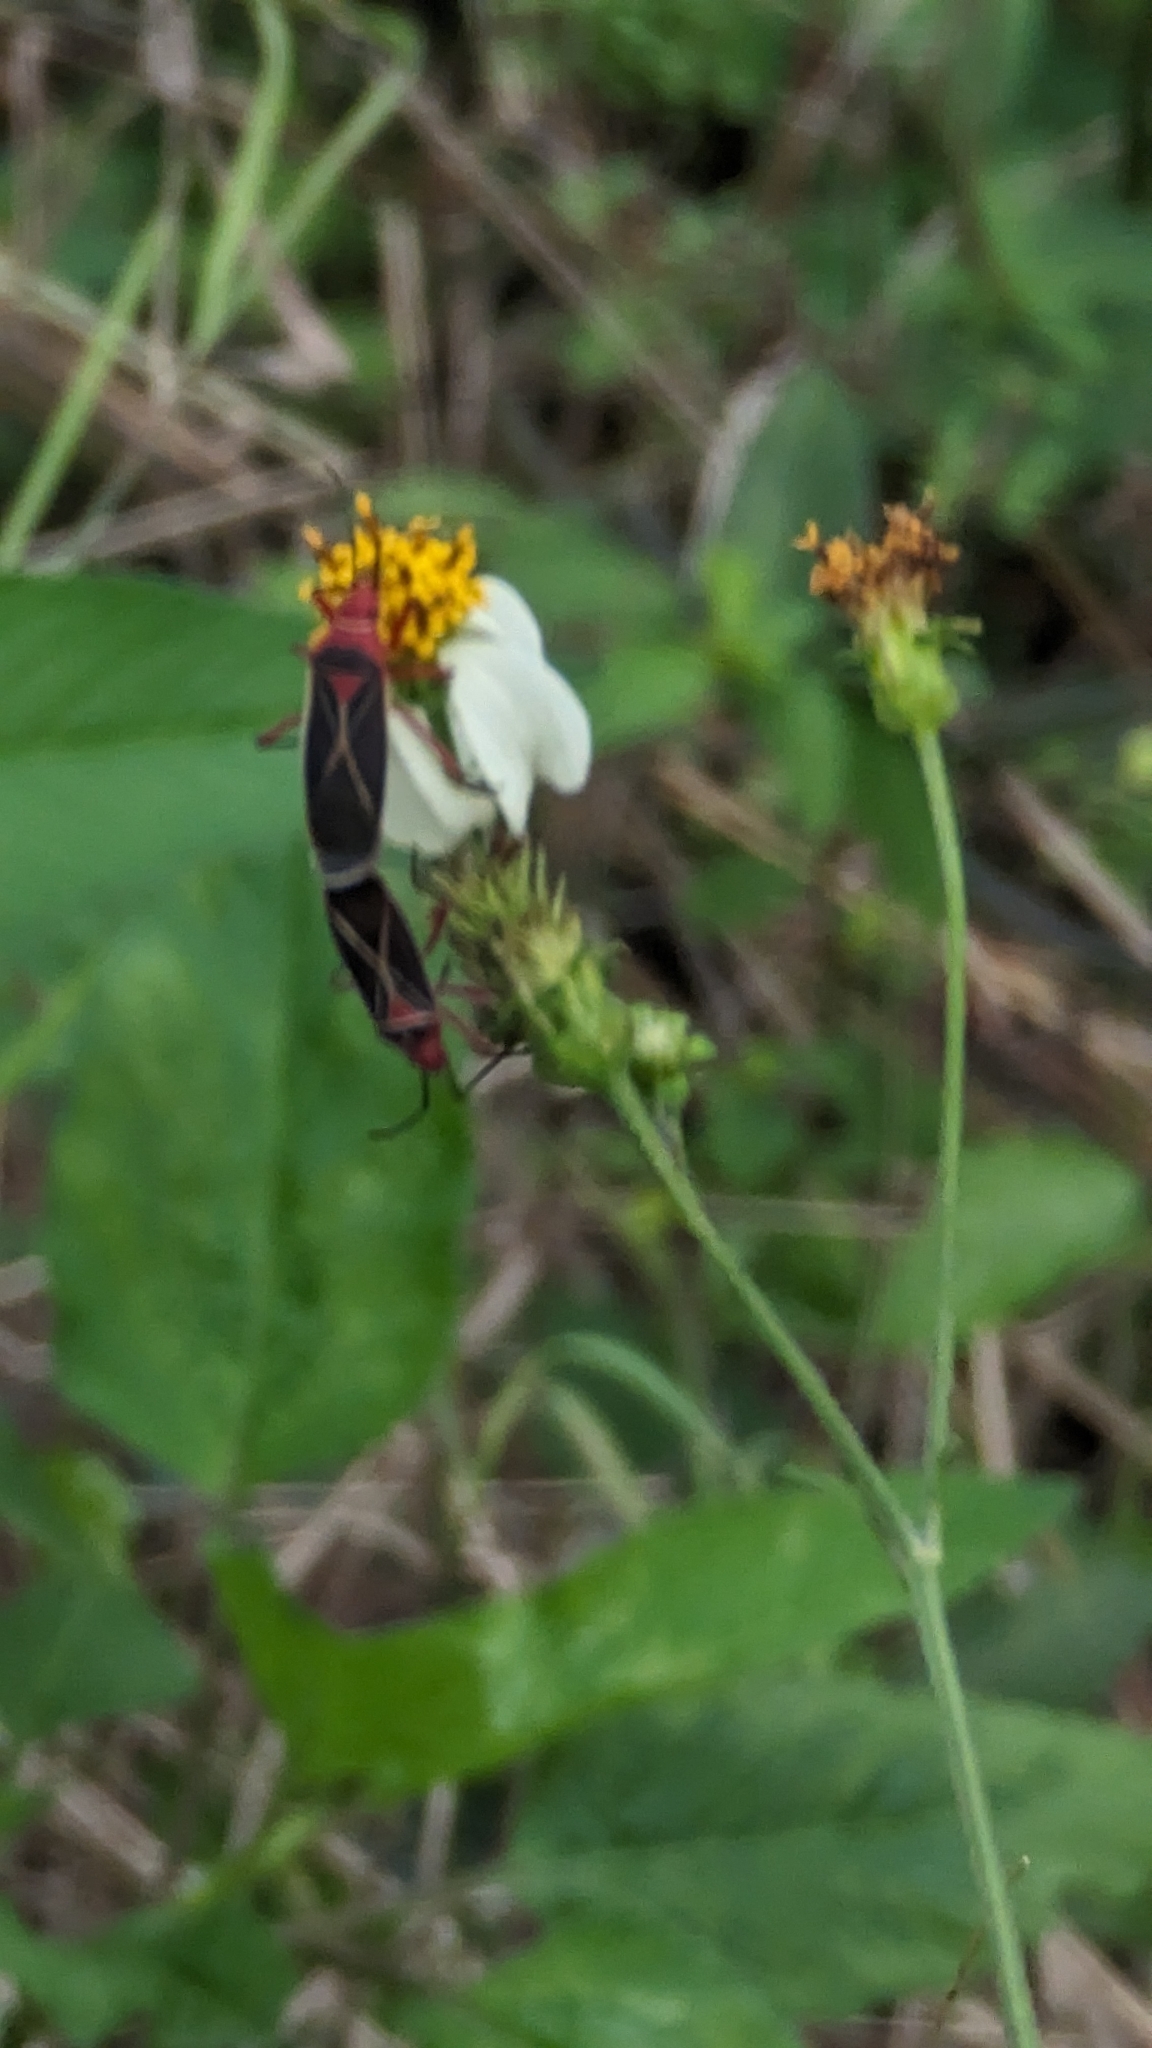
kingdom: Animalia
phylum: Arthropoda
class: Insecta
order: Hemiptera
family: Pyrrhocoridae
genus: Dysdercus
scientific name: Dysdercus suturellus
